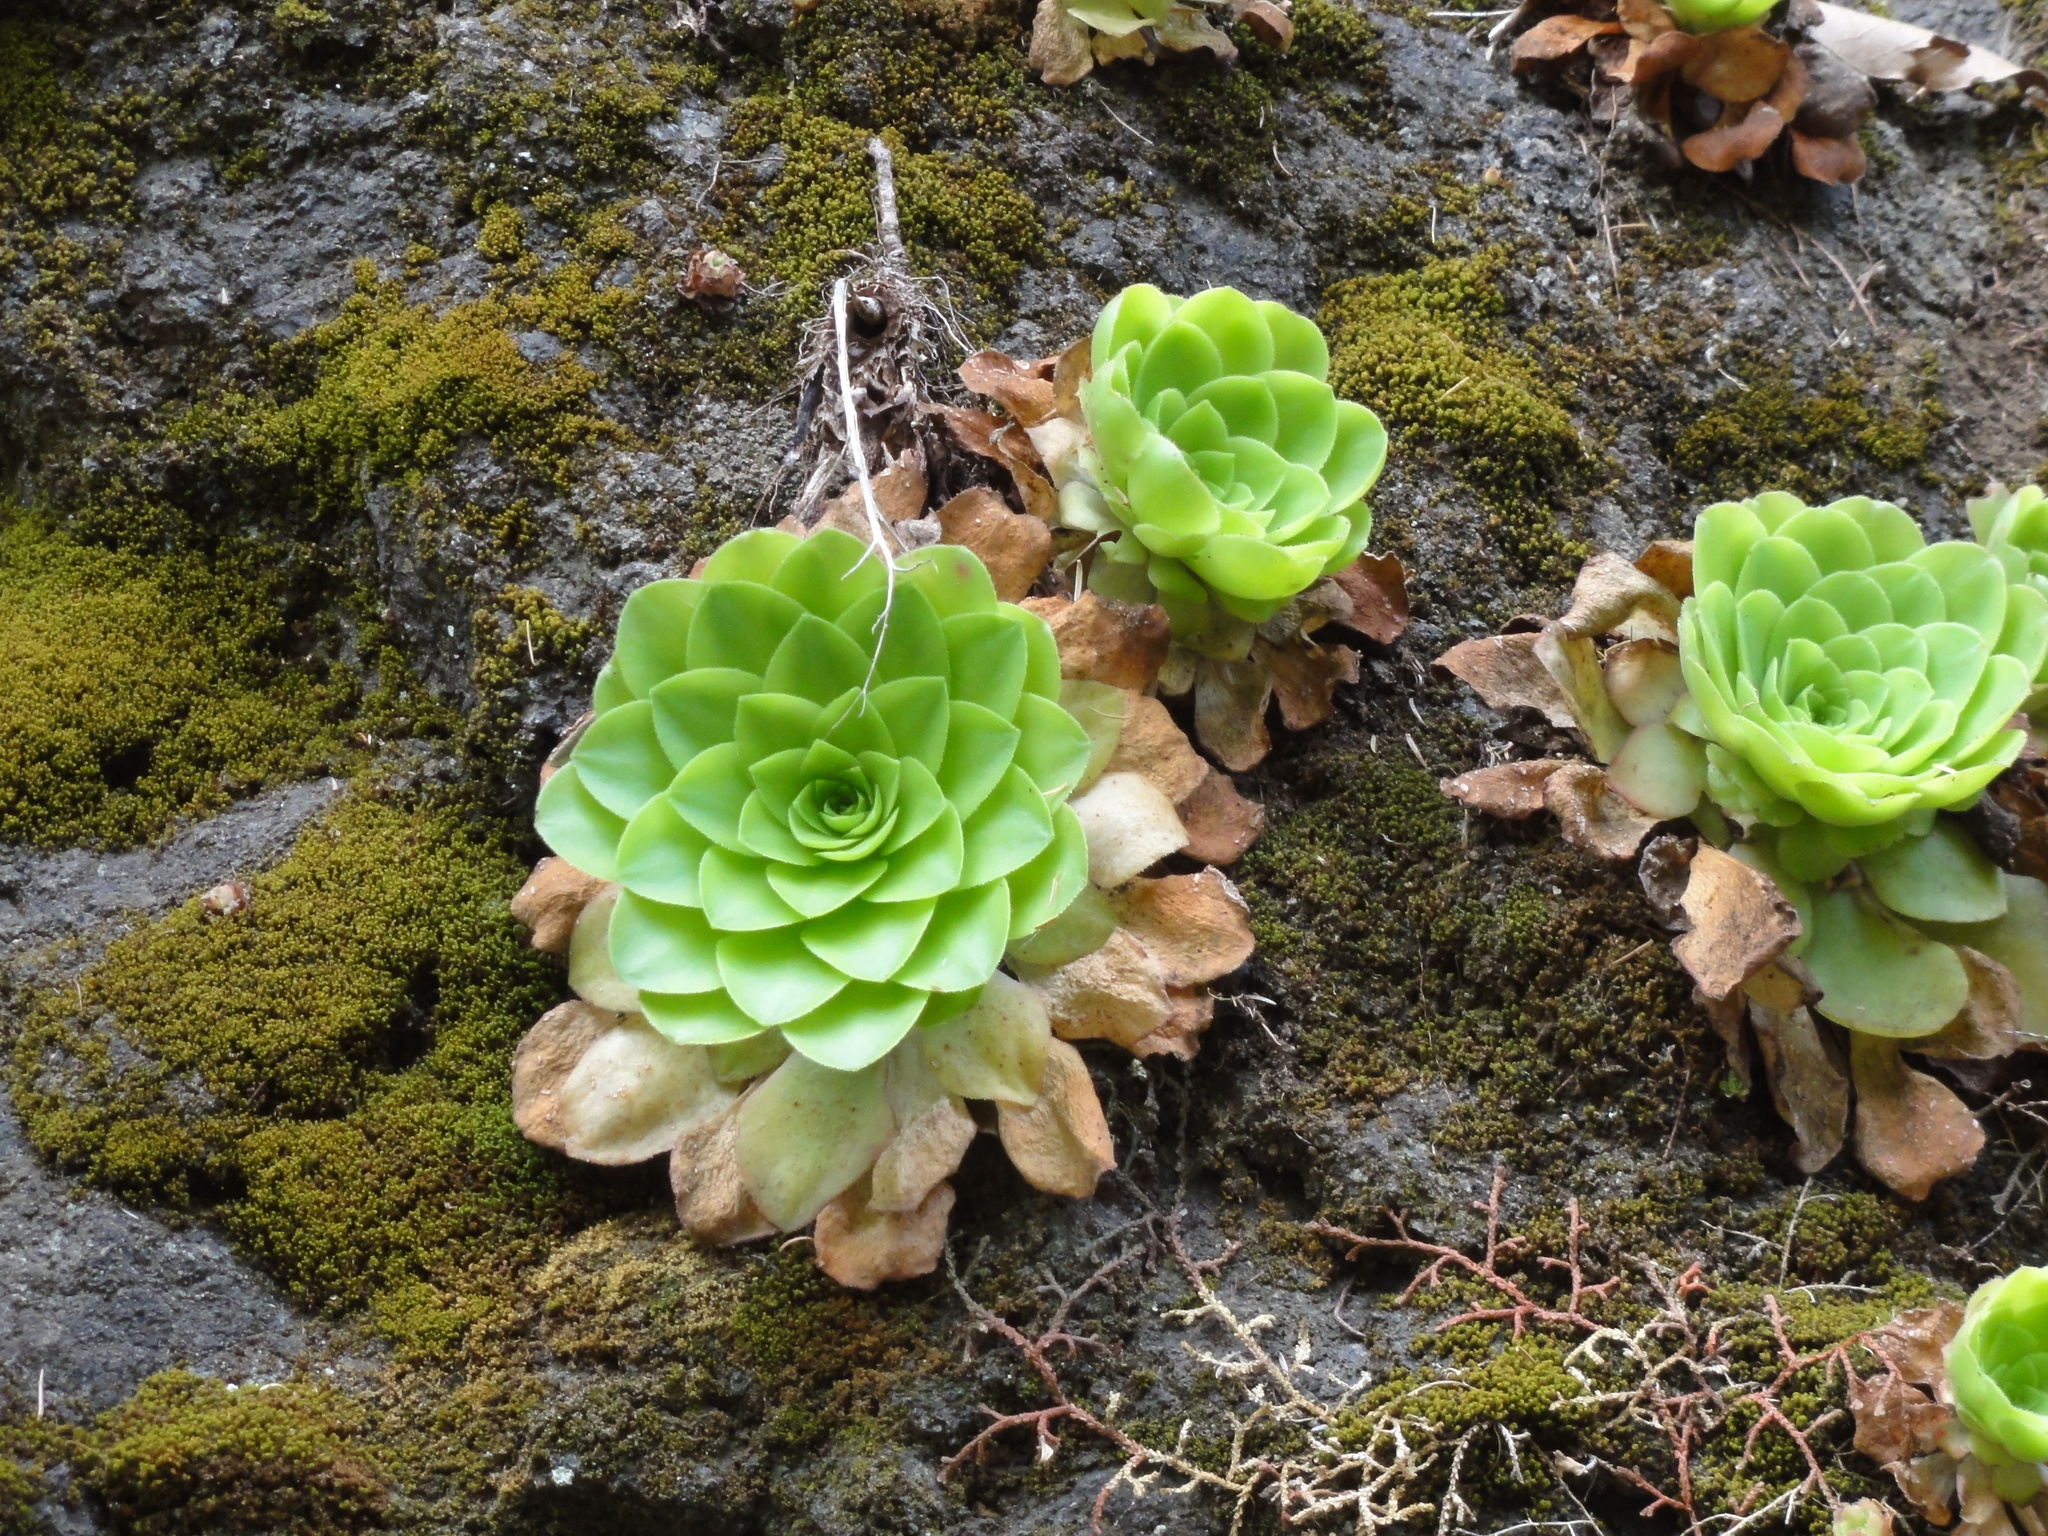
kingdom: Plantae
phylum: Tracheophyta
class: Magnoliopsida
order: Saxifragales
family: Crassulaceae
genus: Aeonium
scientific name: Aeonium glandulosum
